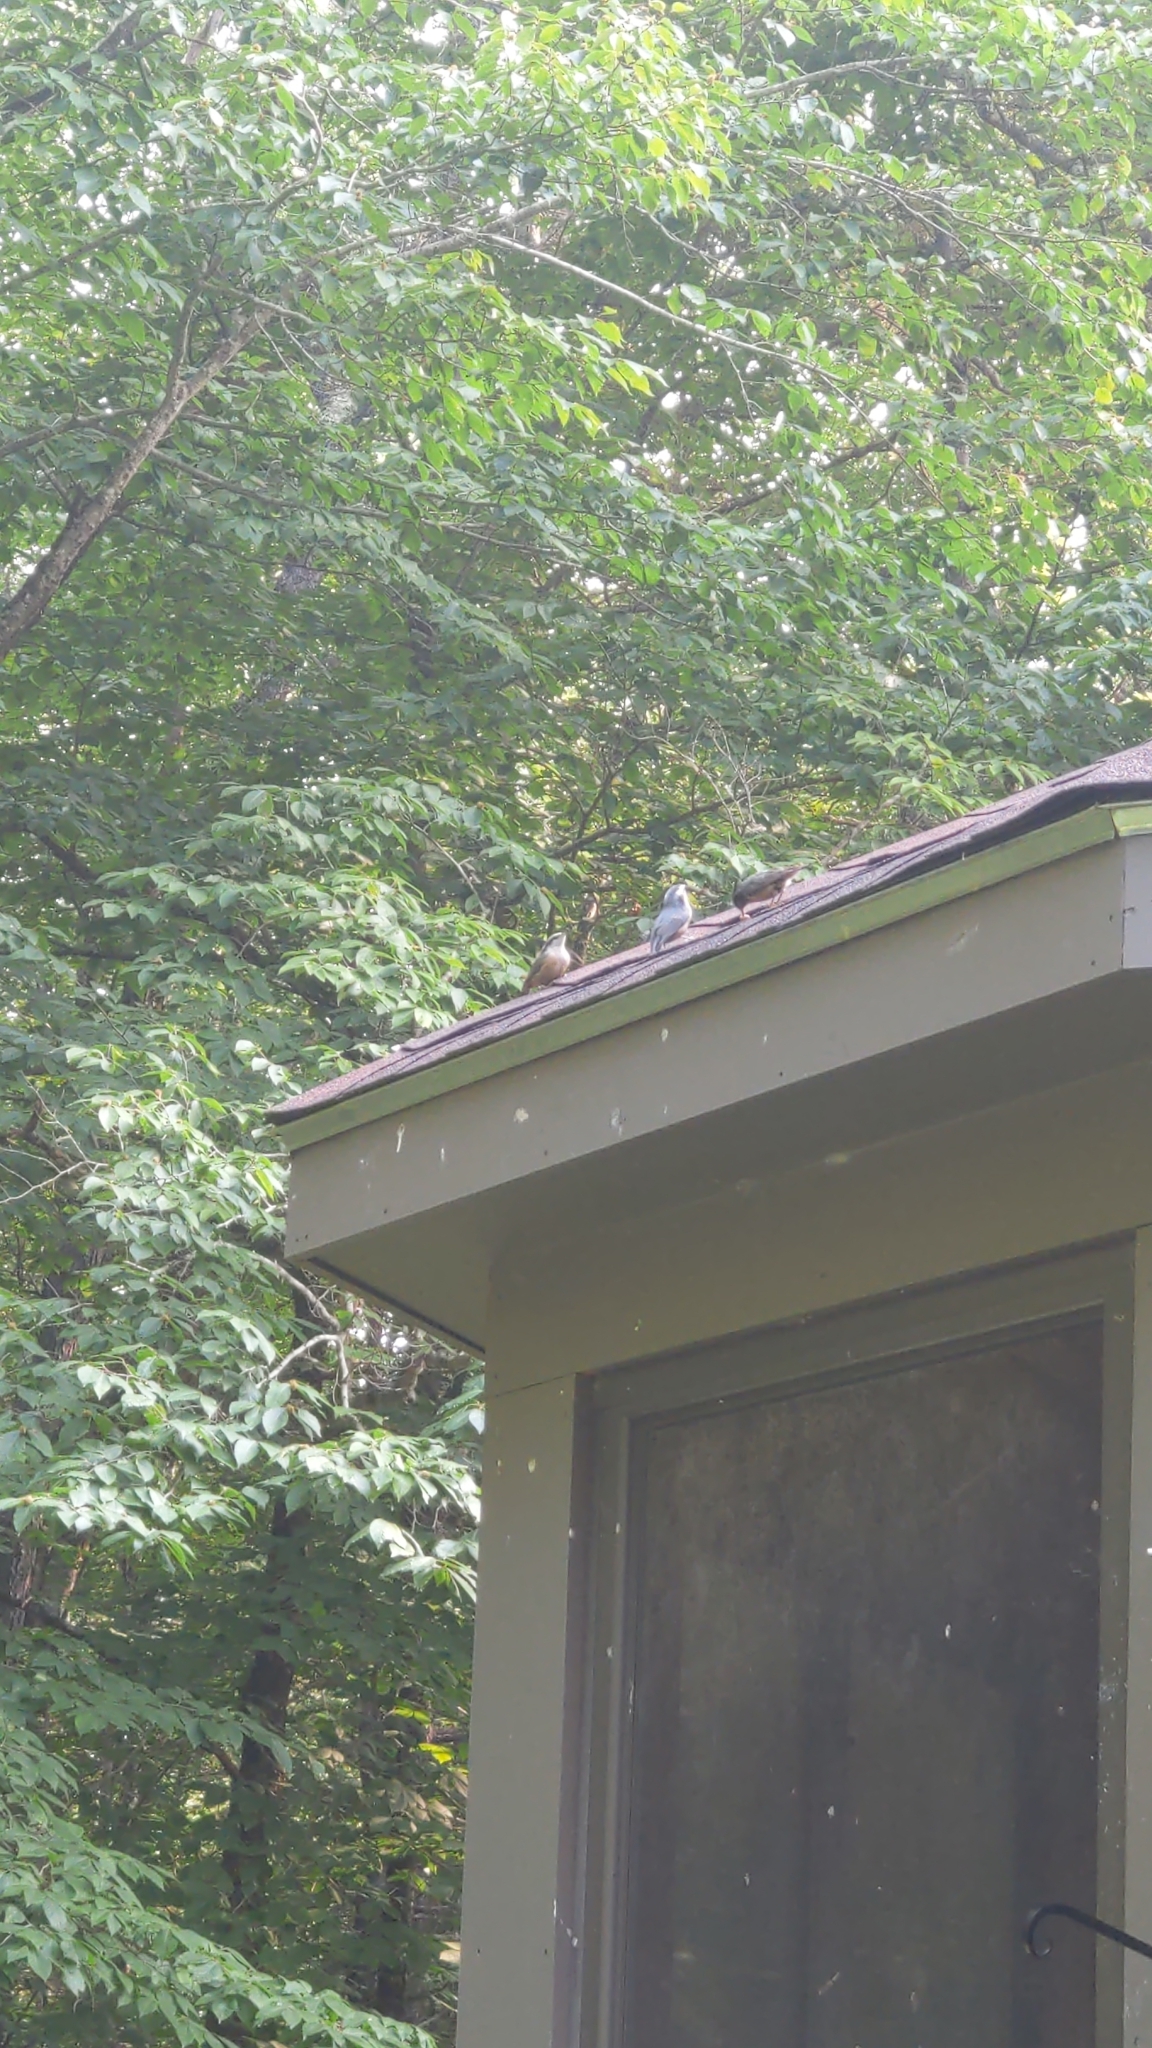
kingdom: Animalia
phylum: Chordata
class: Aves
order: Passeriformes
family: Sittidae
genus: Sitta
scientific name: Sitta canadensis
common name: Red-breasted nuthatch
